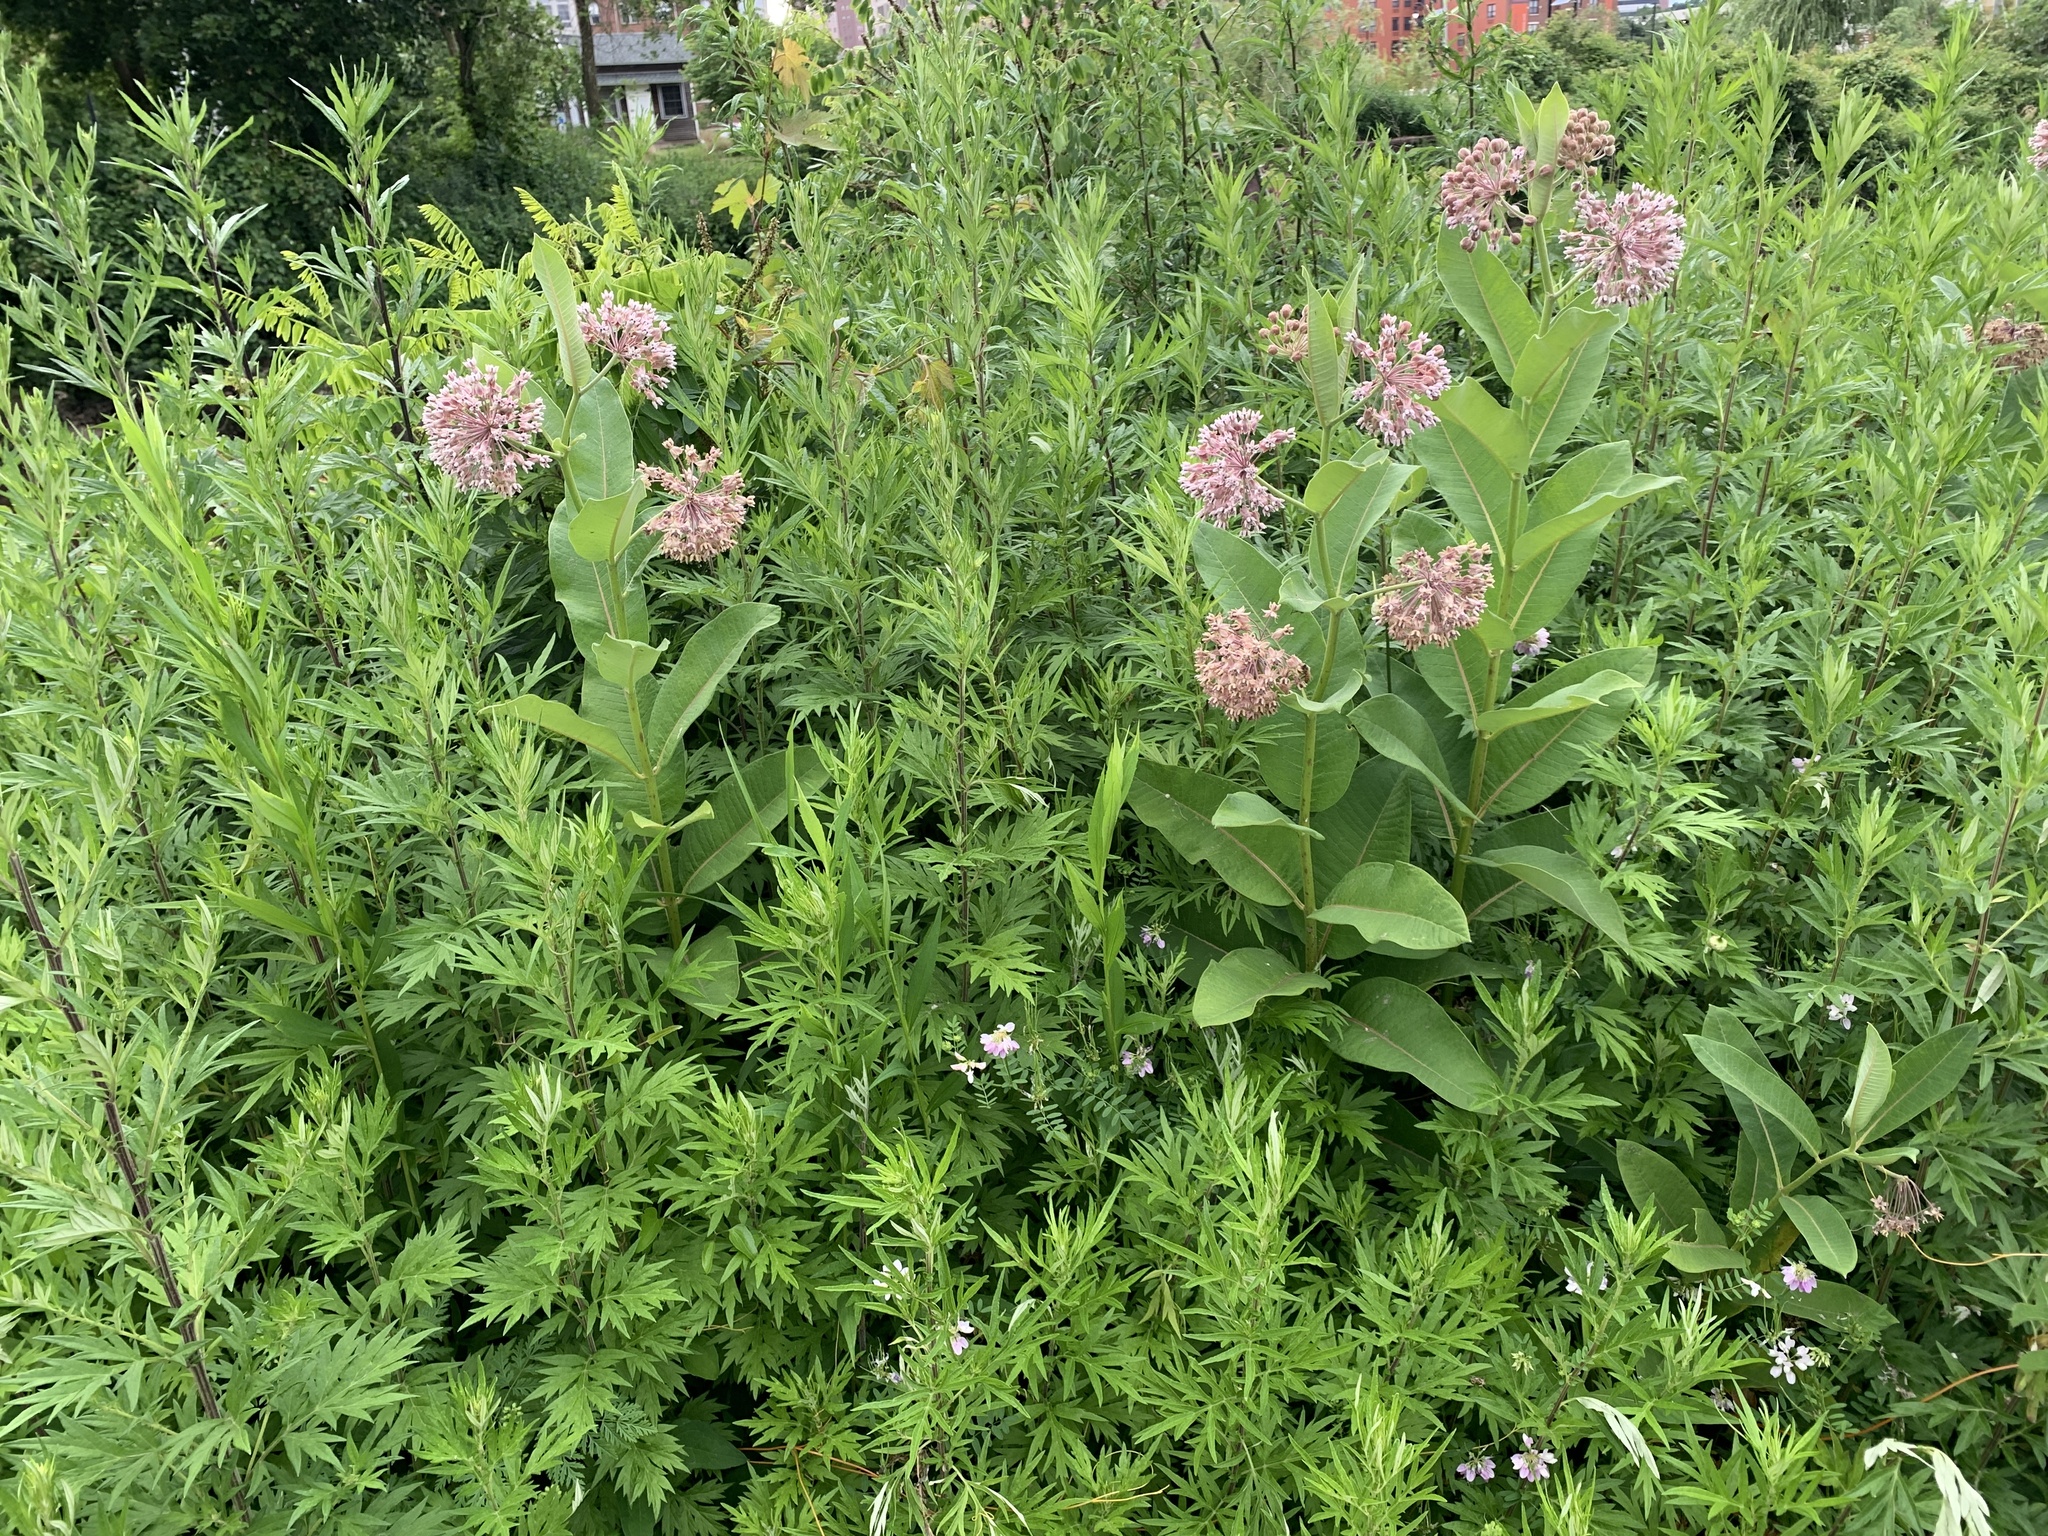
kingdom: Plantae
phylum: Tracheophyta
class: Magnoliopsida
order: Gentianales
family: Apocynaceae
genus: Asclepias
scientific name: Asclepias syriaca
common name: Common milkweed
